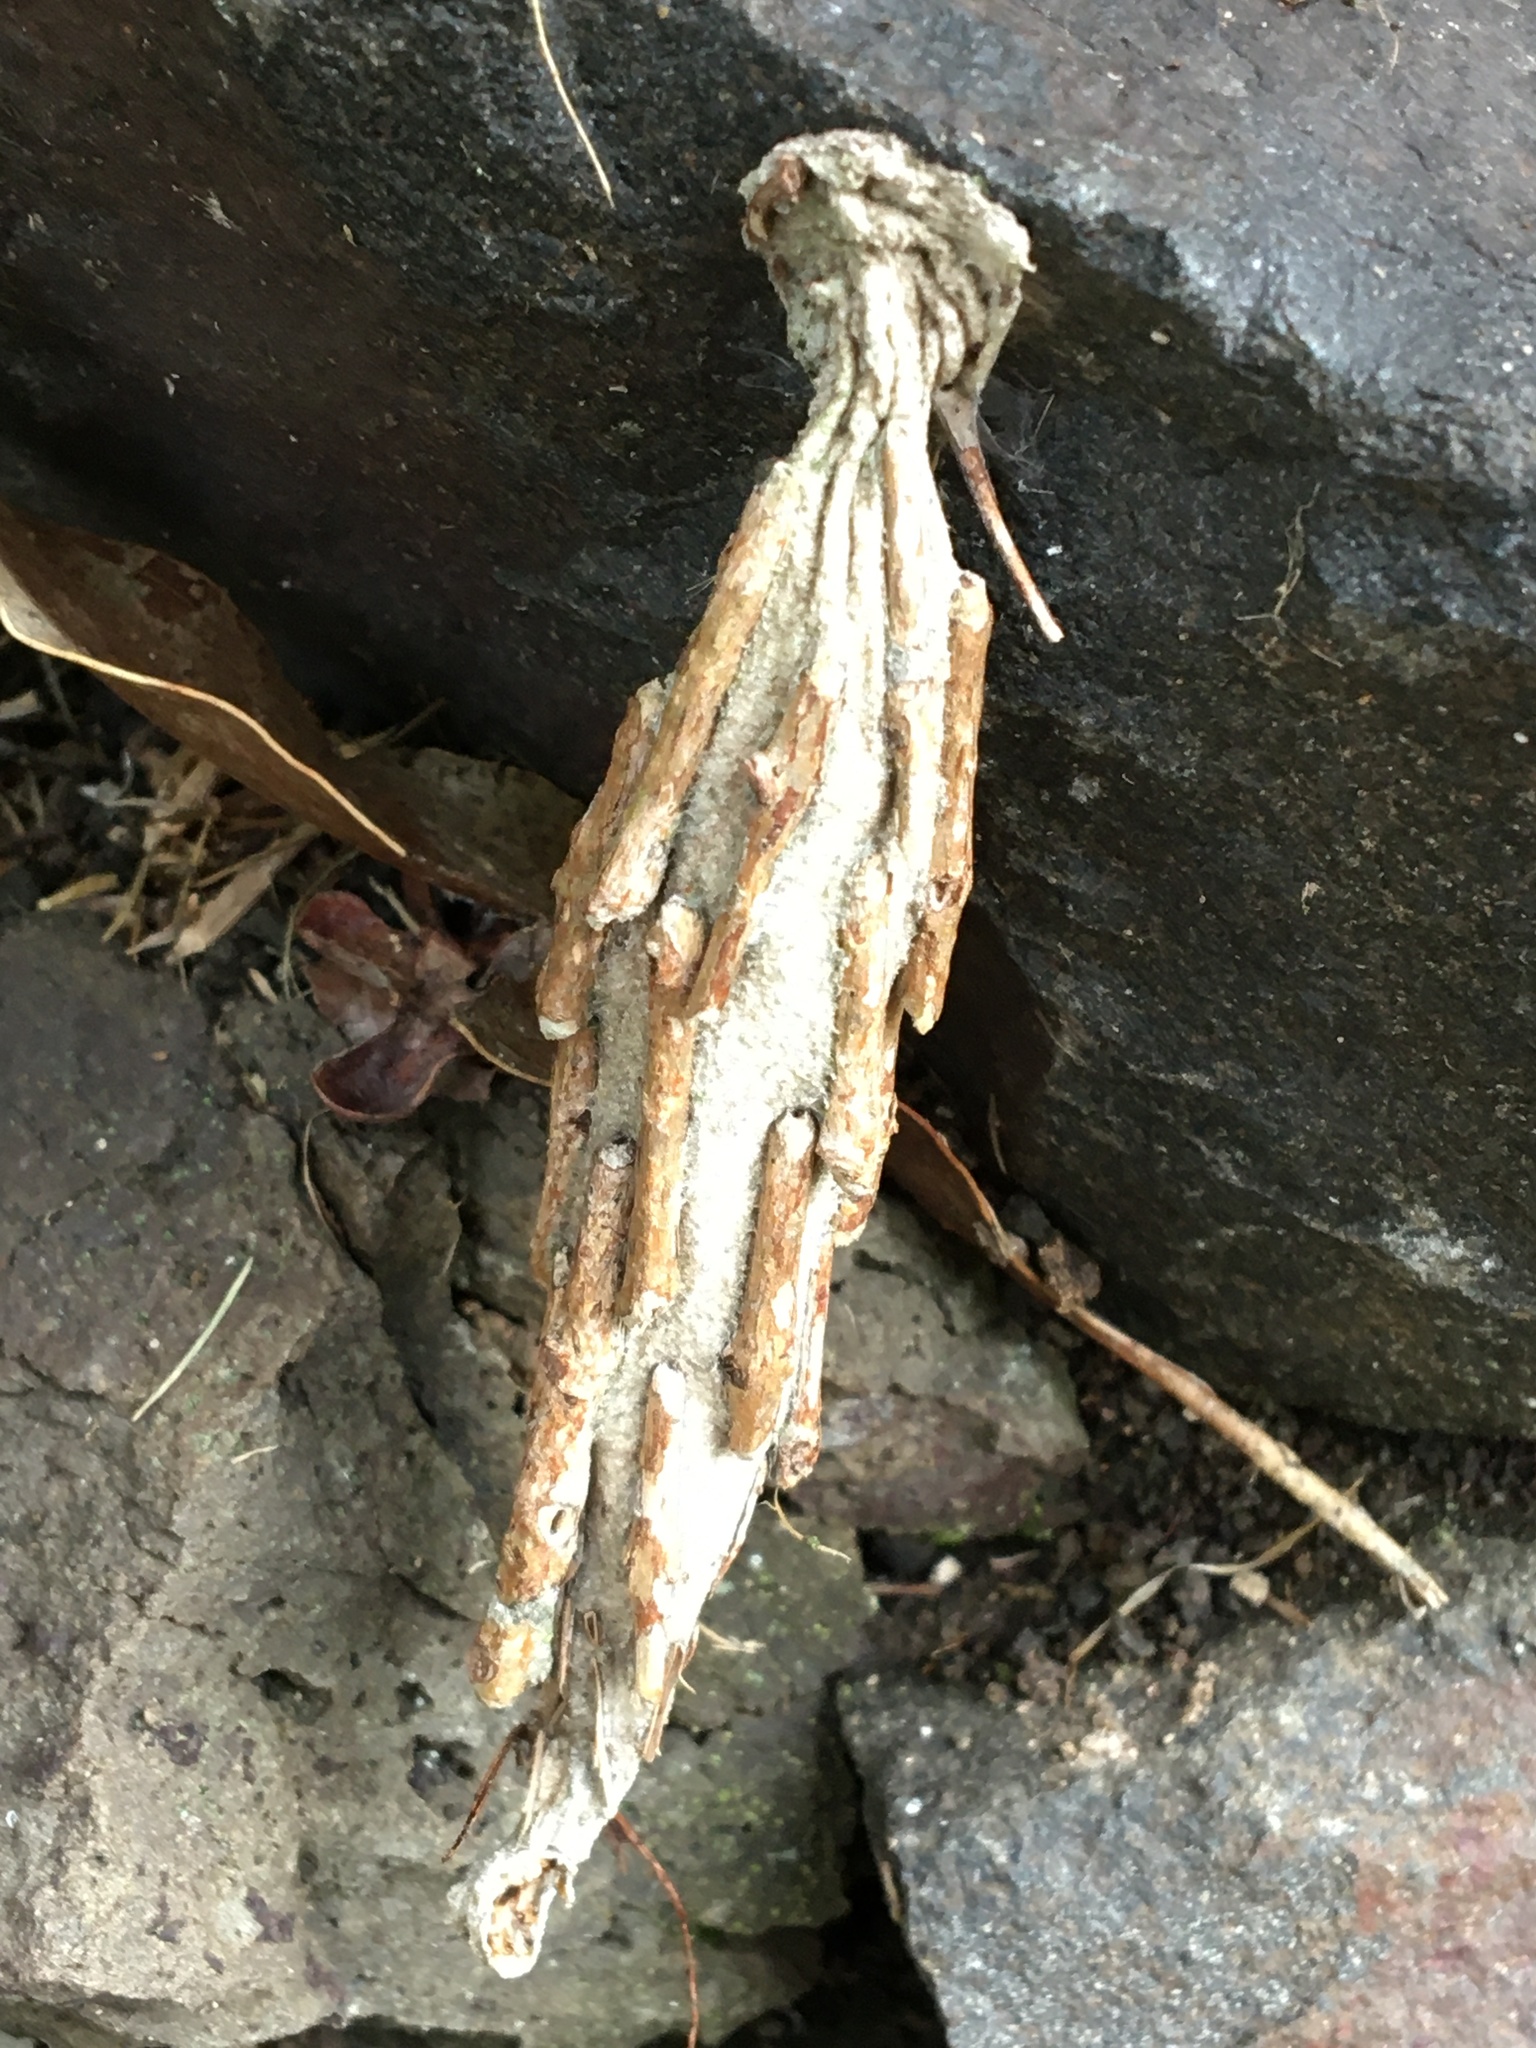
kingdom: Animalia
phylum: Arthropoda
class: Insecta
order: Lepidoptera
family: Psychidae
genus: Metura
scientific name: Metura elongatus
